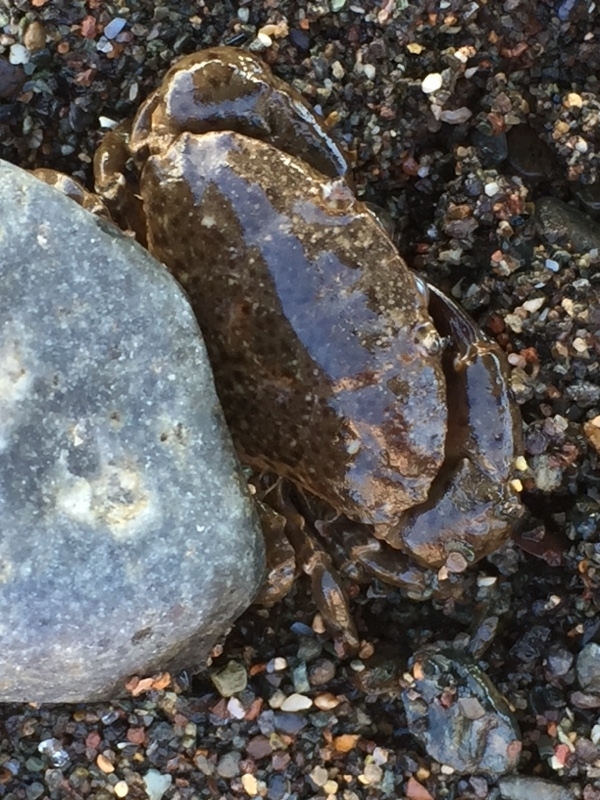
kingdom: Animalia
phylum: Arthropoda
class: Malacostraca
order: Decapoda
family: Xanthidae
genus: Xantho
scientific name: Xantho poressa
